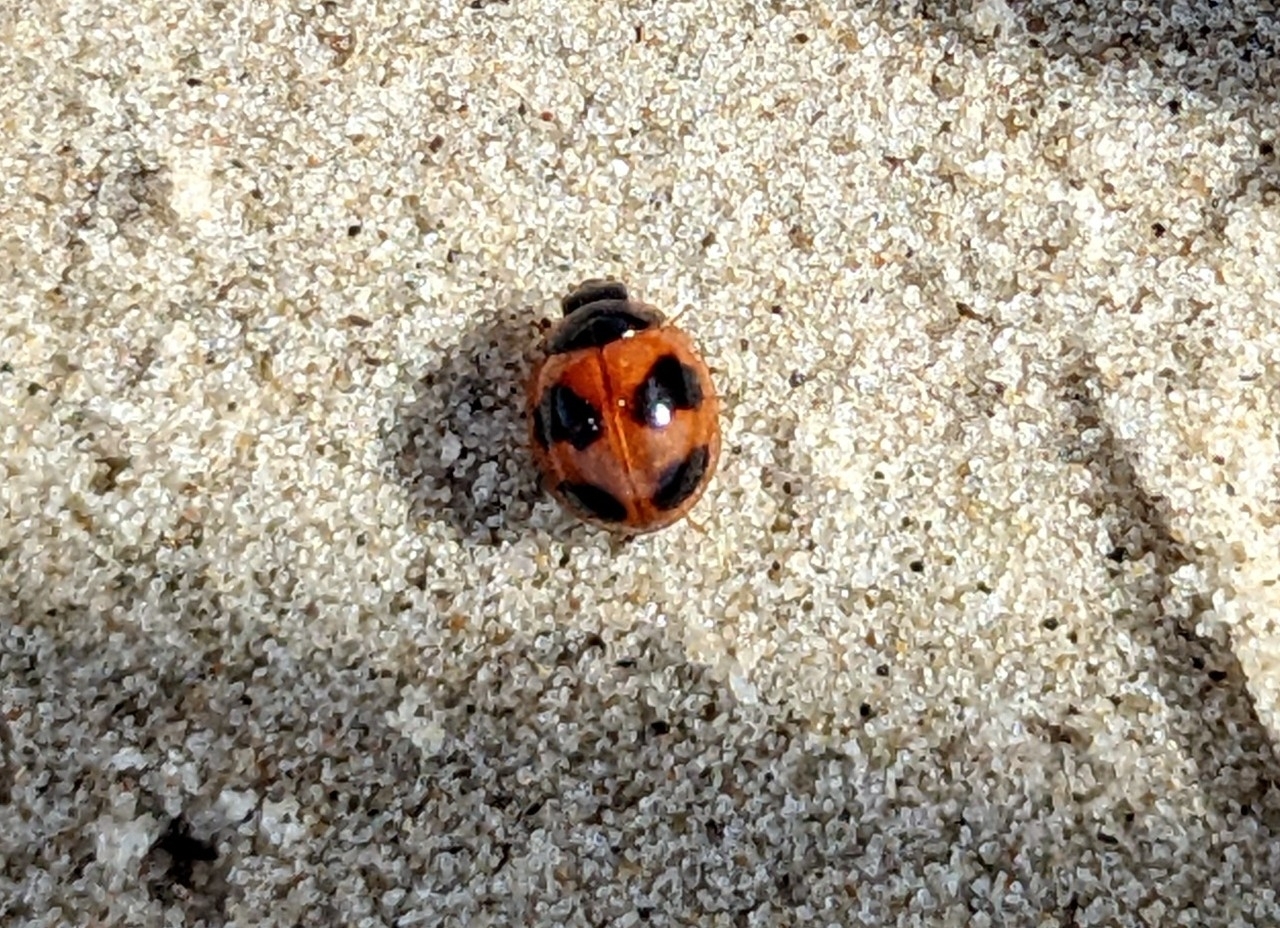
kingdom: Animalia
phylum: Arthropoda
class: Insecta
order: Coleoptera
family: Coccinellidae
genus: Exochomus
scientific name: Exochomus childreni
